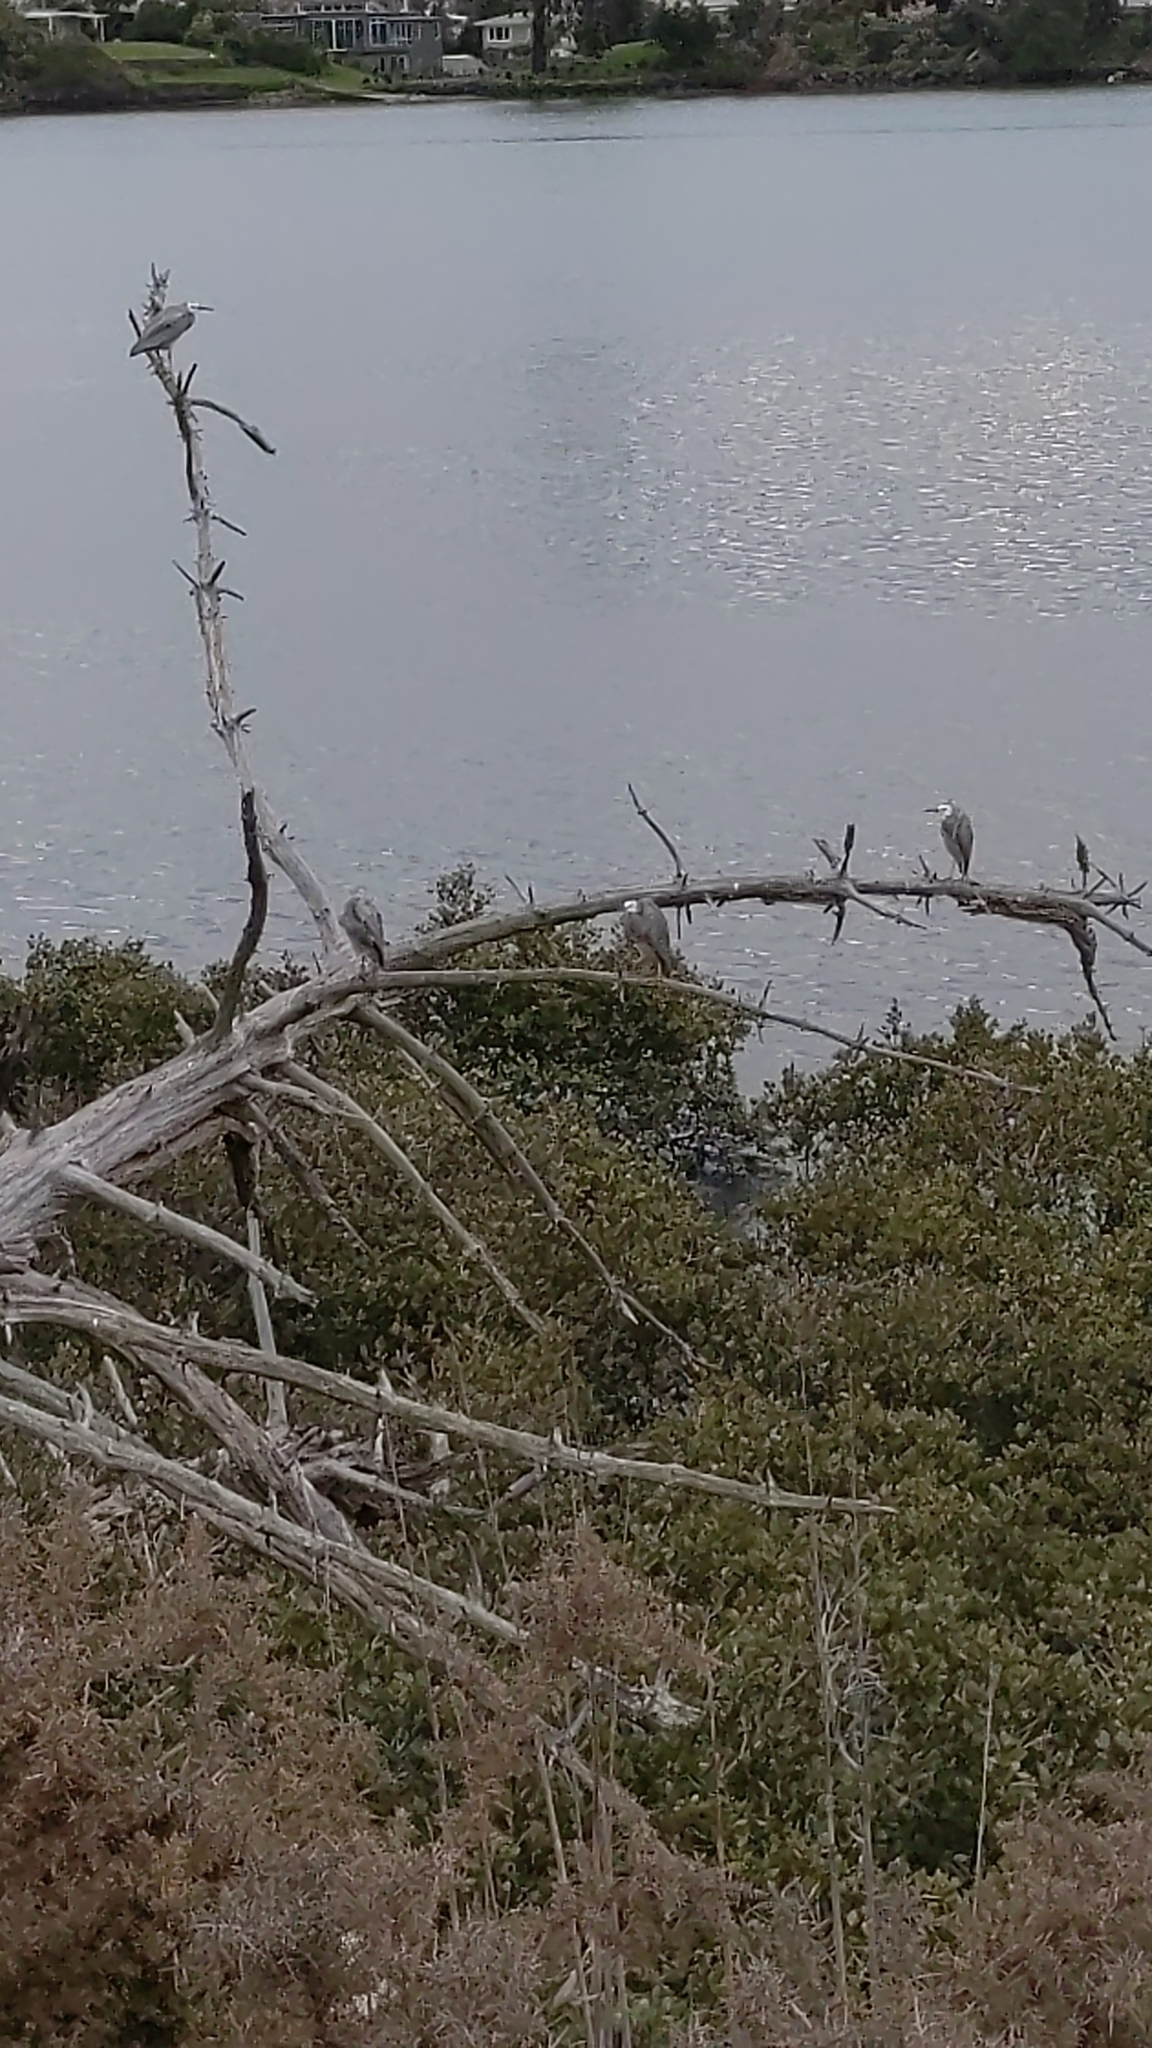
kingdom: Animalia
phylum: Chordata
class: Aves
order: Pelecaniformes
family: Ardeidae
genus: Egretta
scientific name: Egretta novaehollandiae
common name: White-faced heron
